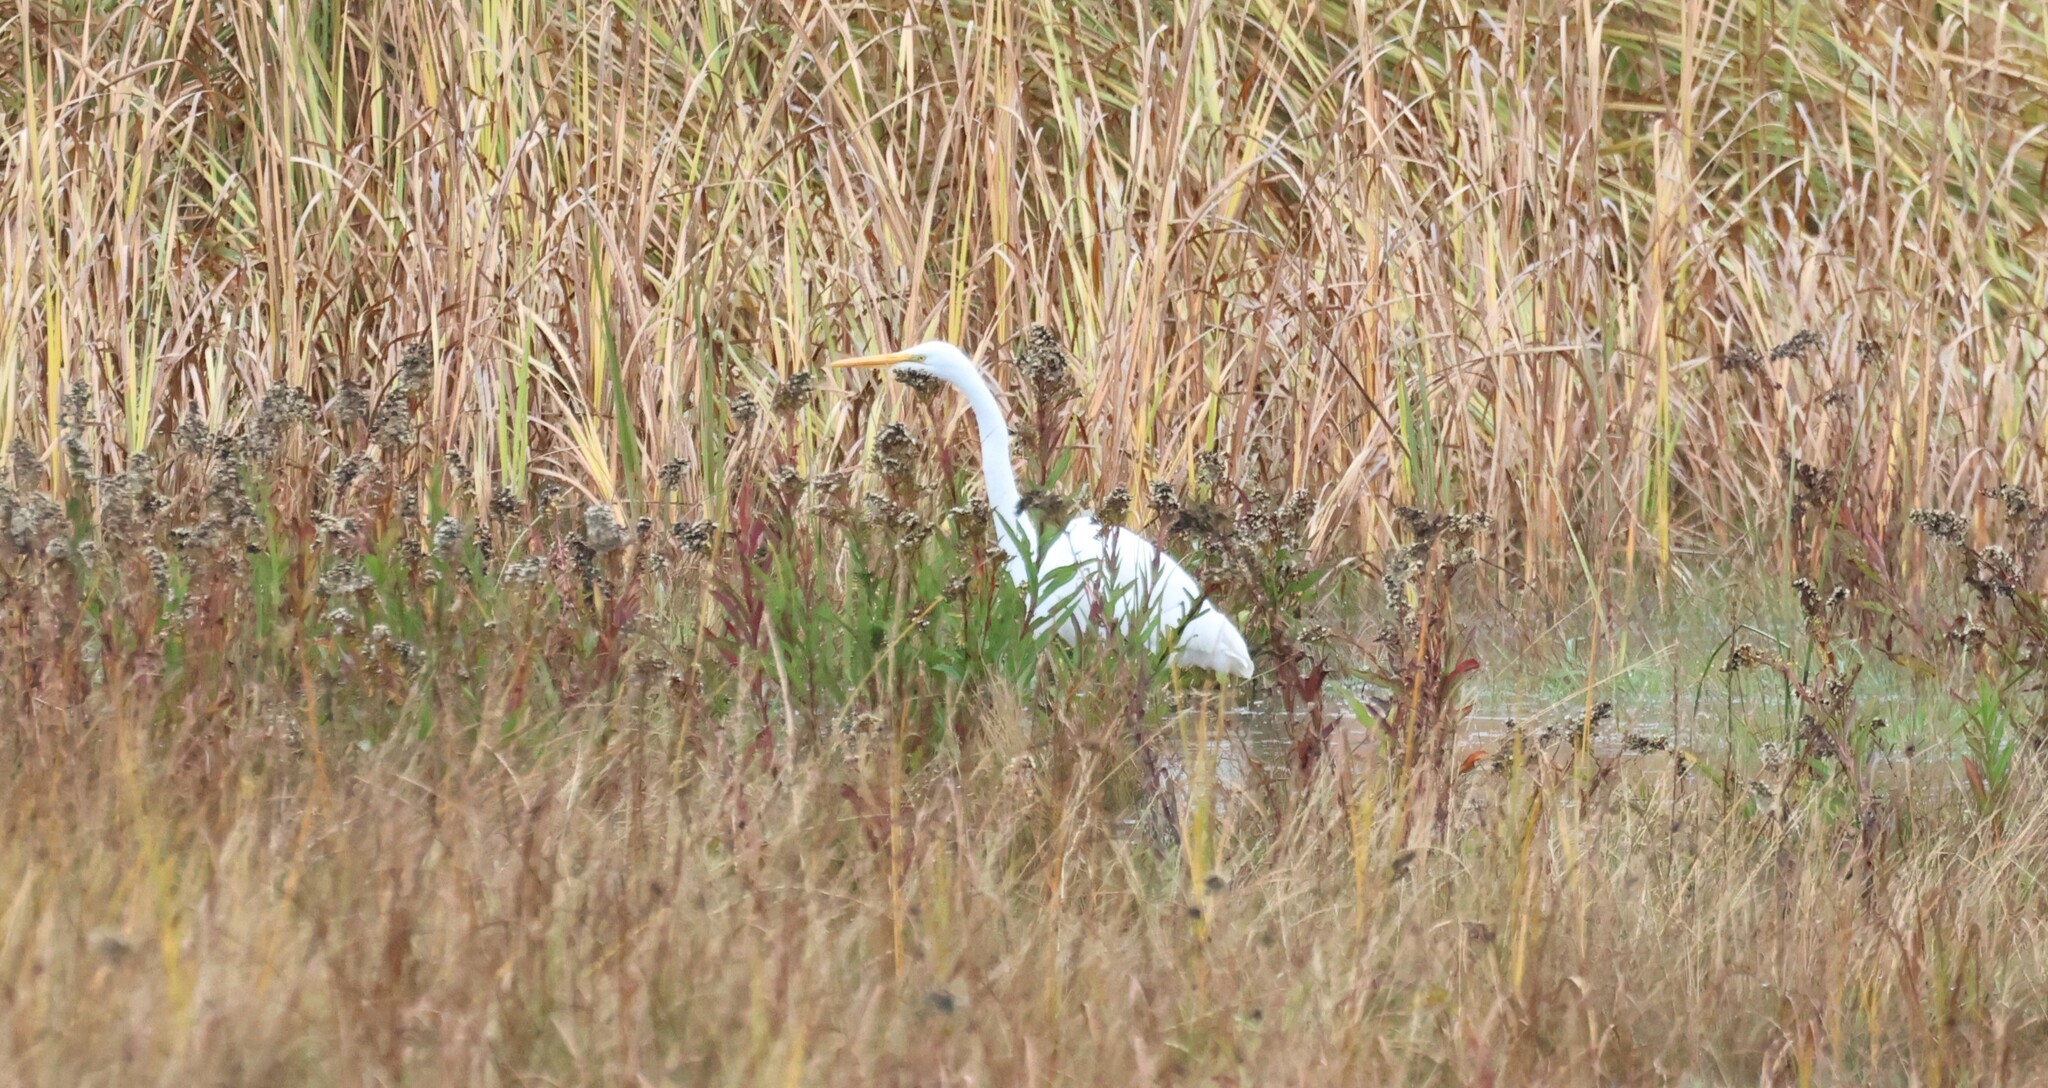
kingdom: Animalia
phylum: Chordata
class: Aves
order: Pelecaniformes
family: Ardeidae
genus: Ardea
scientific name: Ardea alba
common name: Great egret
